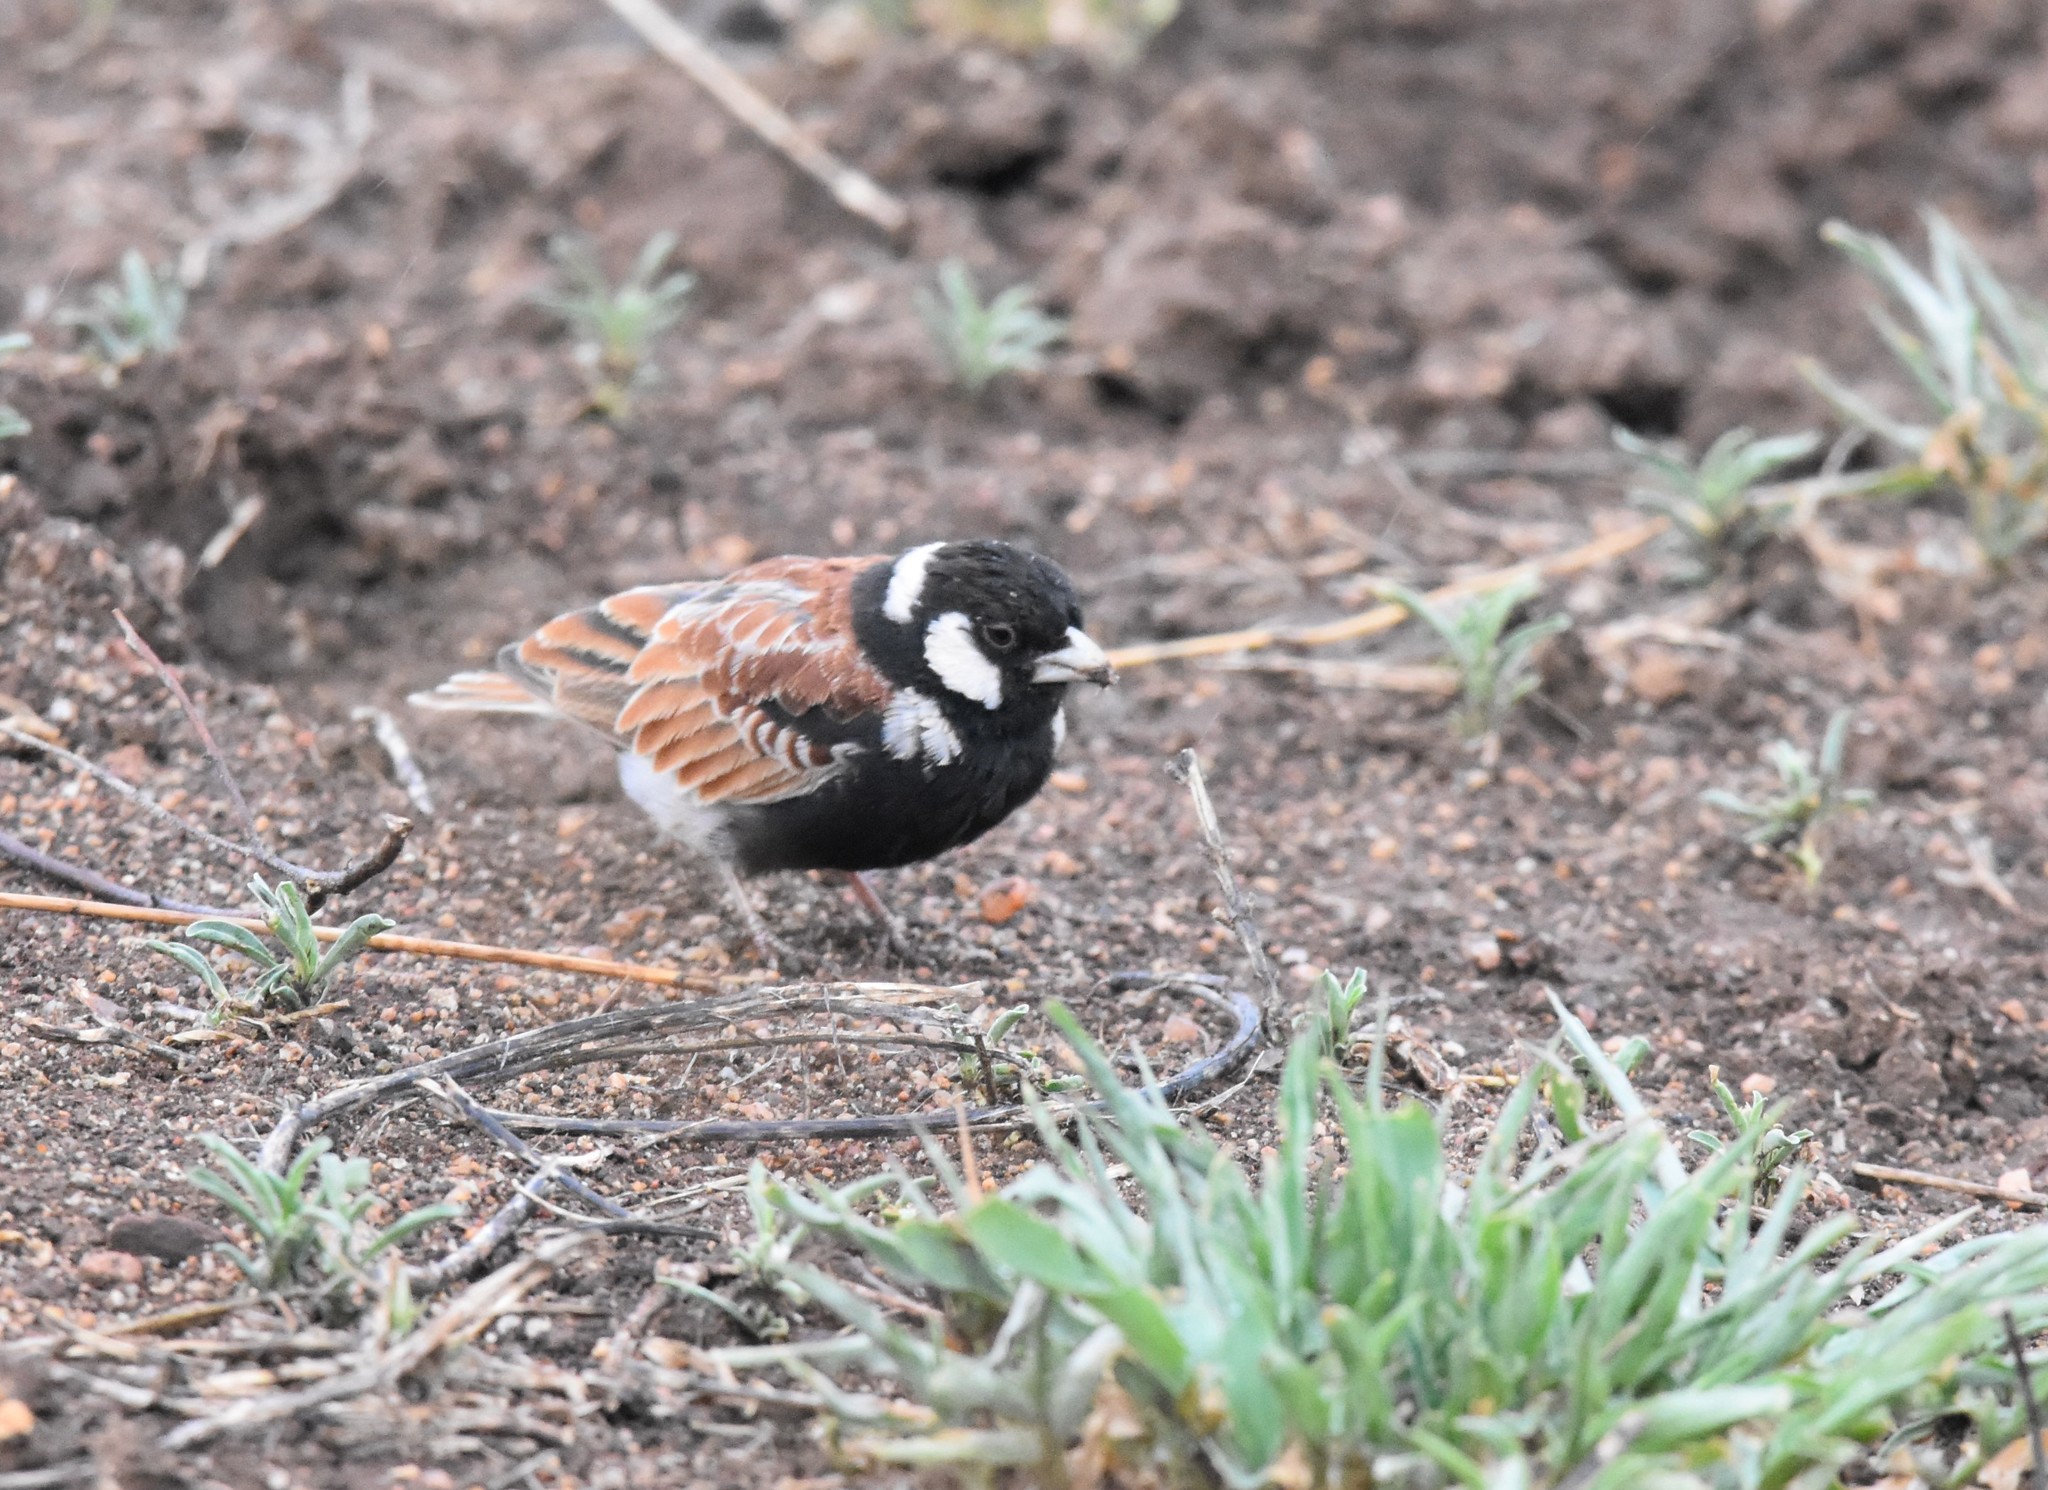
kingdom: Animalia
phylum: Chordata
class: Aves
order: Passeriformes
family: Alaudidae
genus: Eremopterix
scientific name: Eremopterix leucotis
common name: Chestnut-backed sparrow-lark
